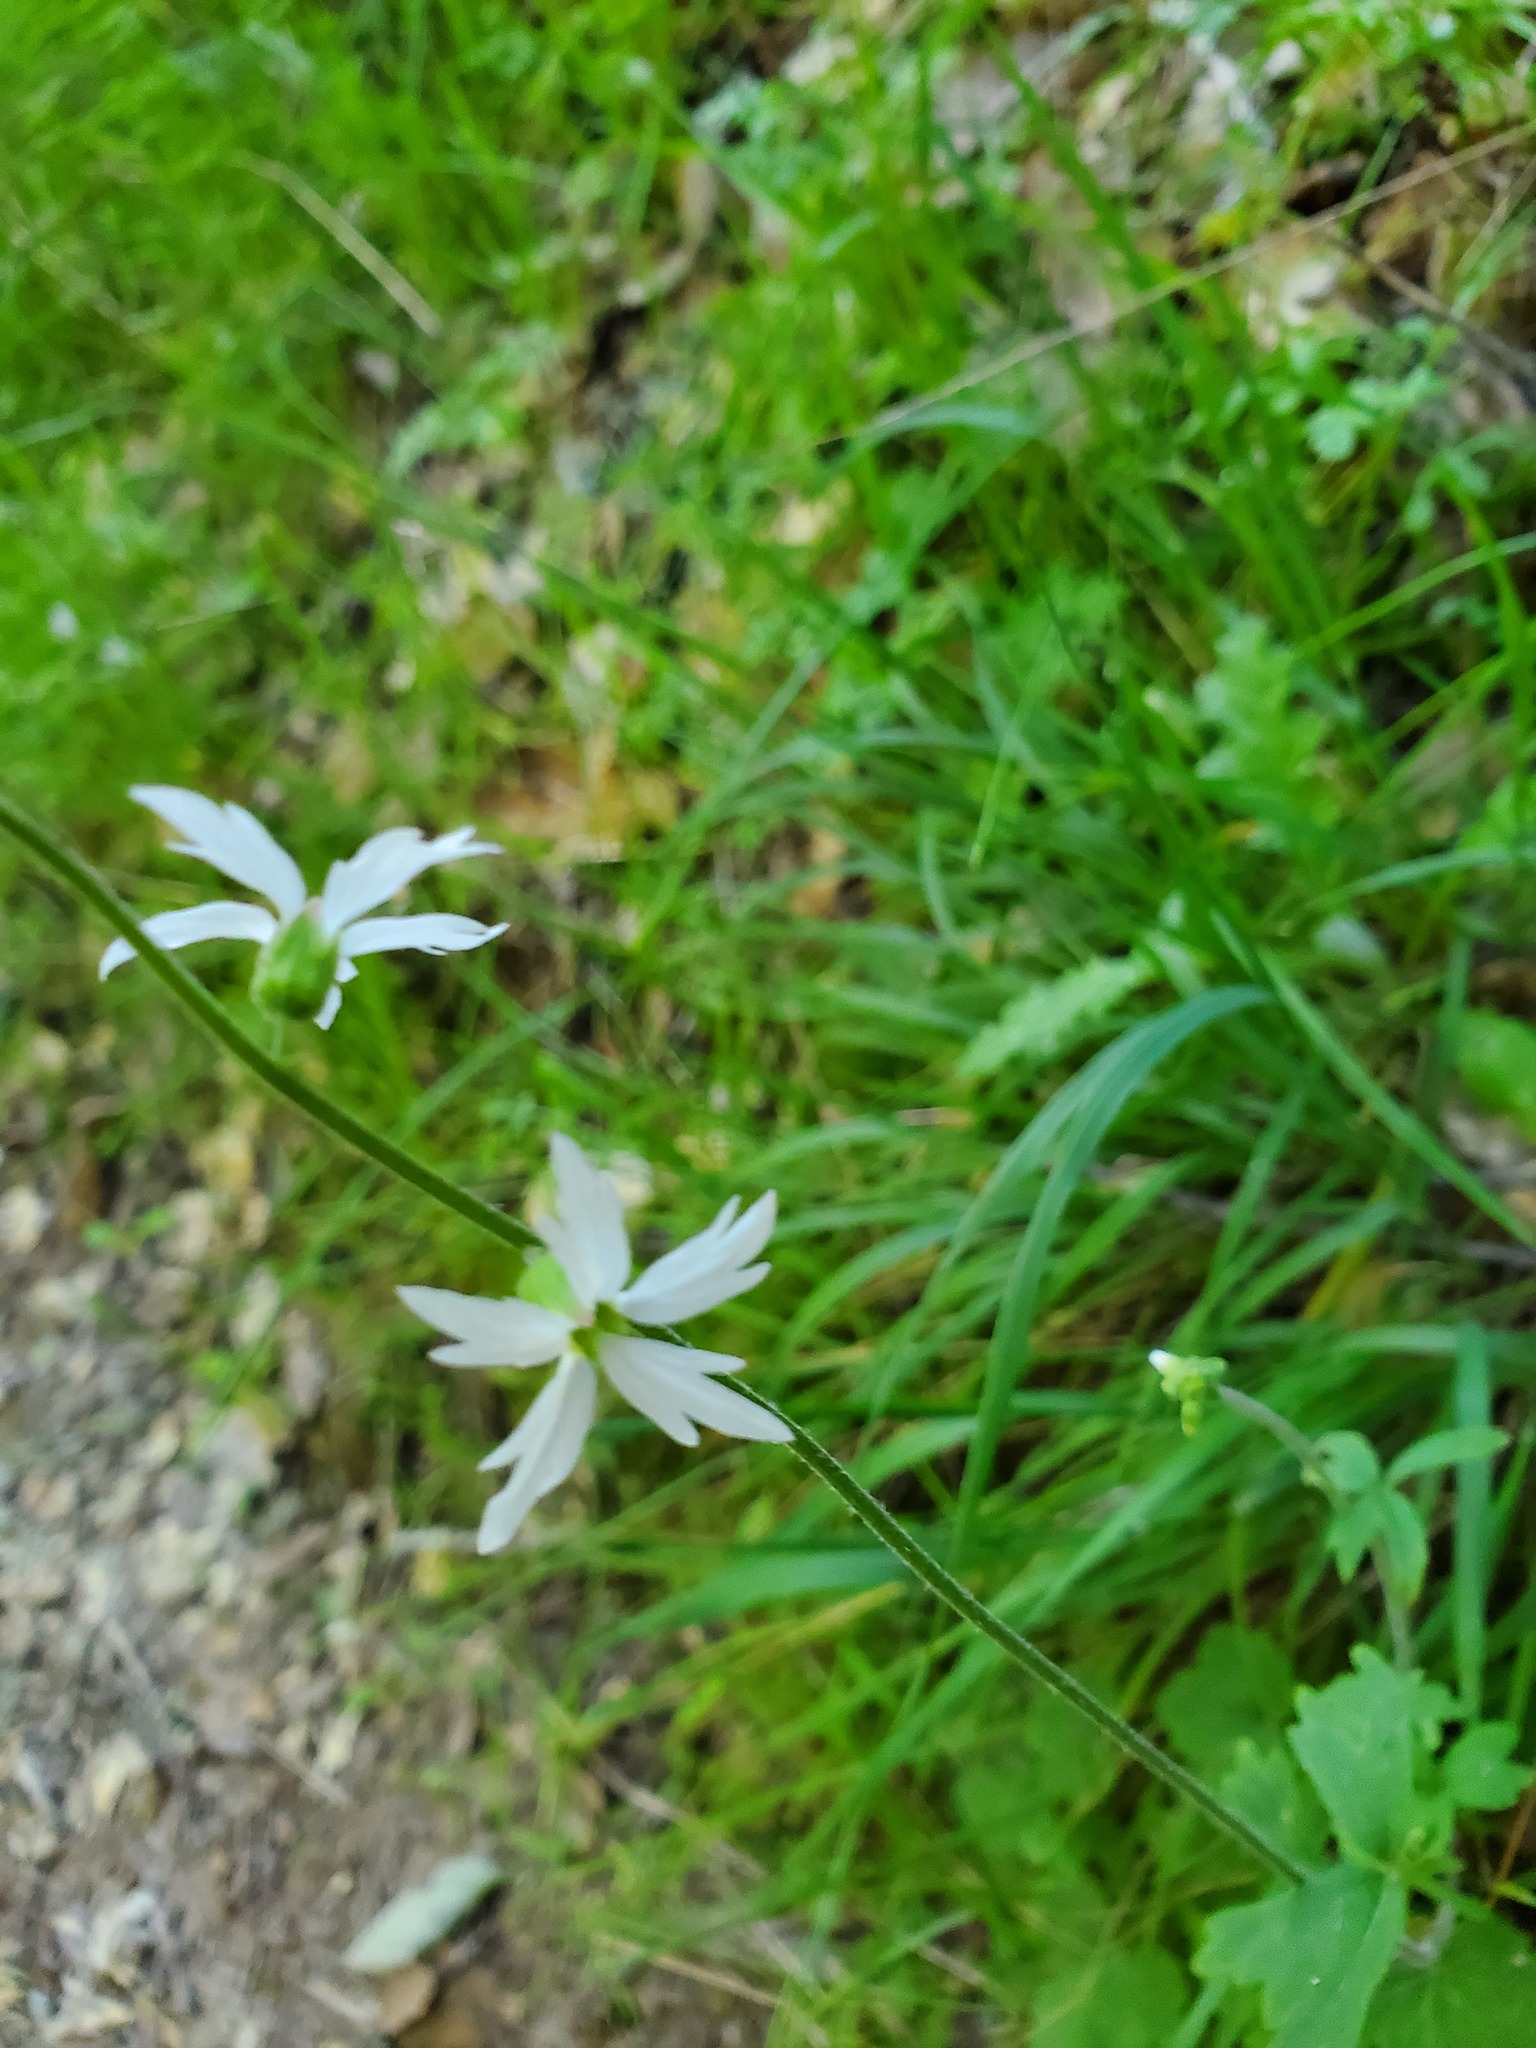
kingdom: Plantae
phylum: Tracheophyta
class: Magnoliopsida
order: Saxifragales
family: Saxifragaceae
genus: Lithophragma
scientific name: Lithophragma heterophyllum
